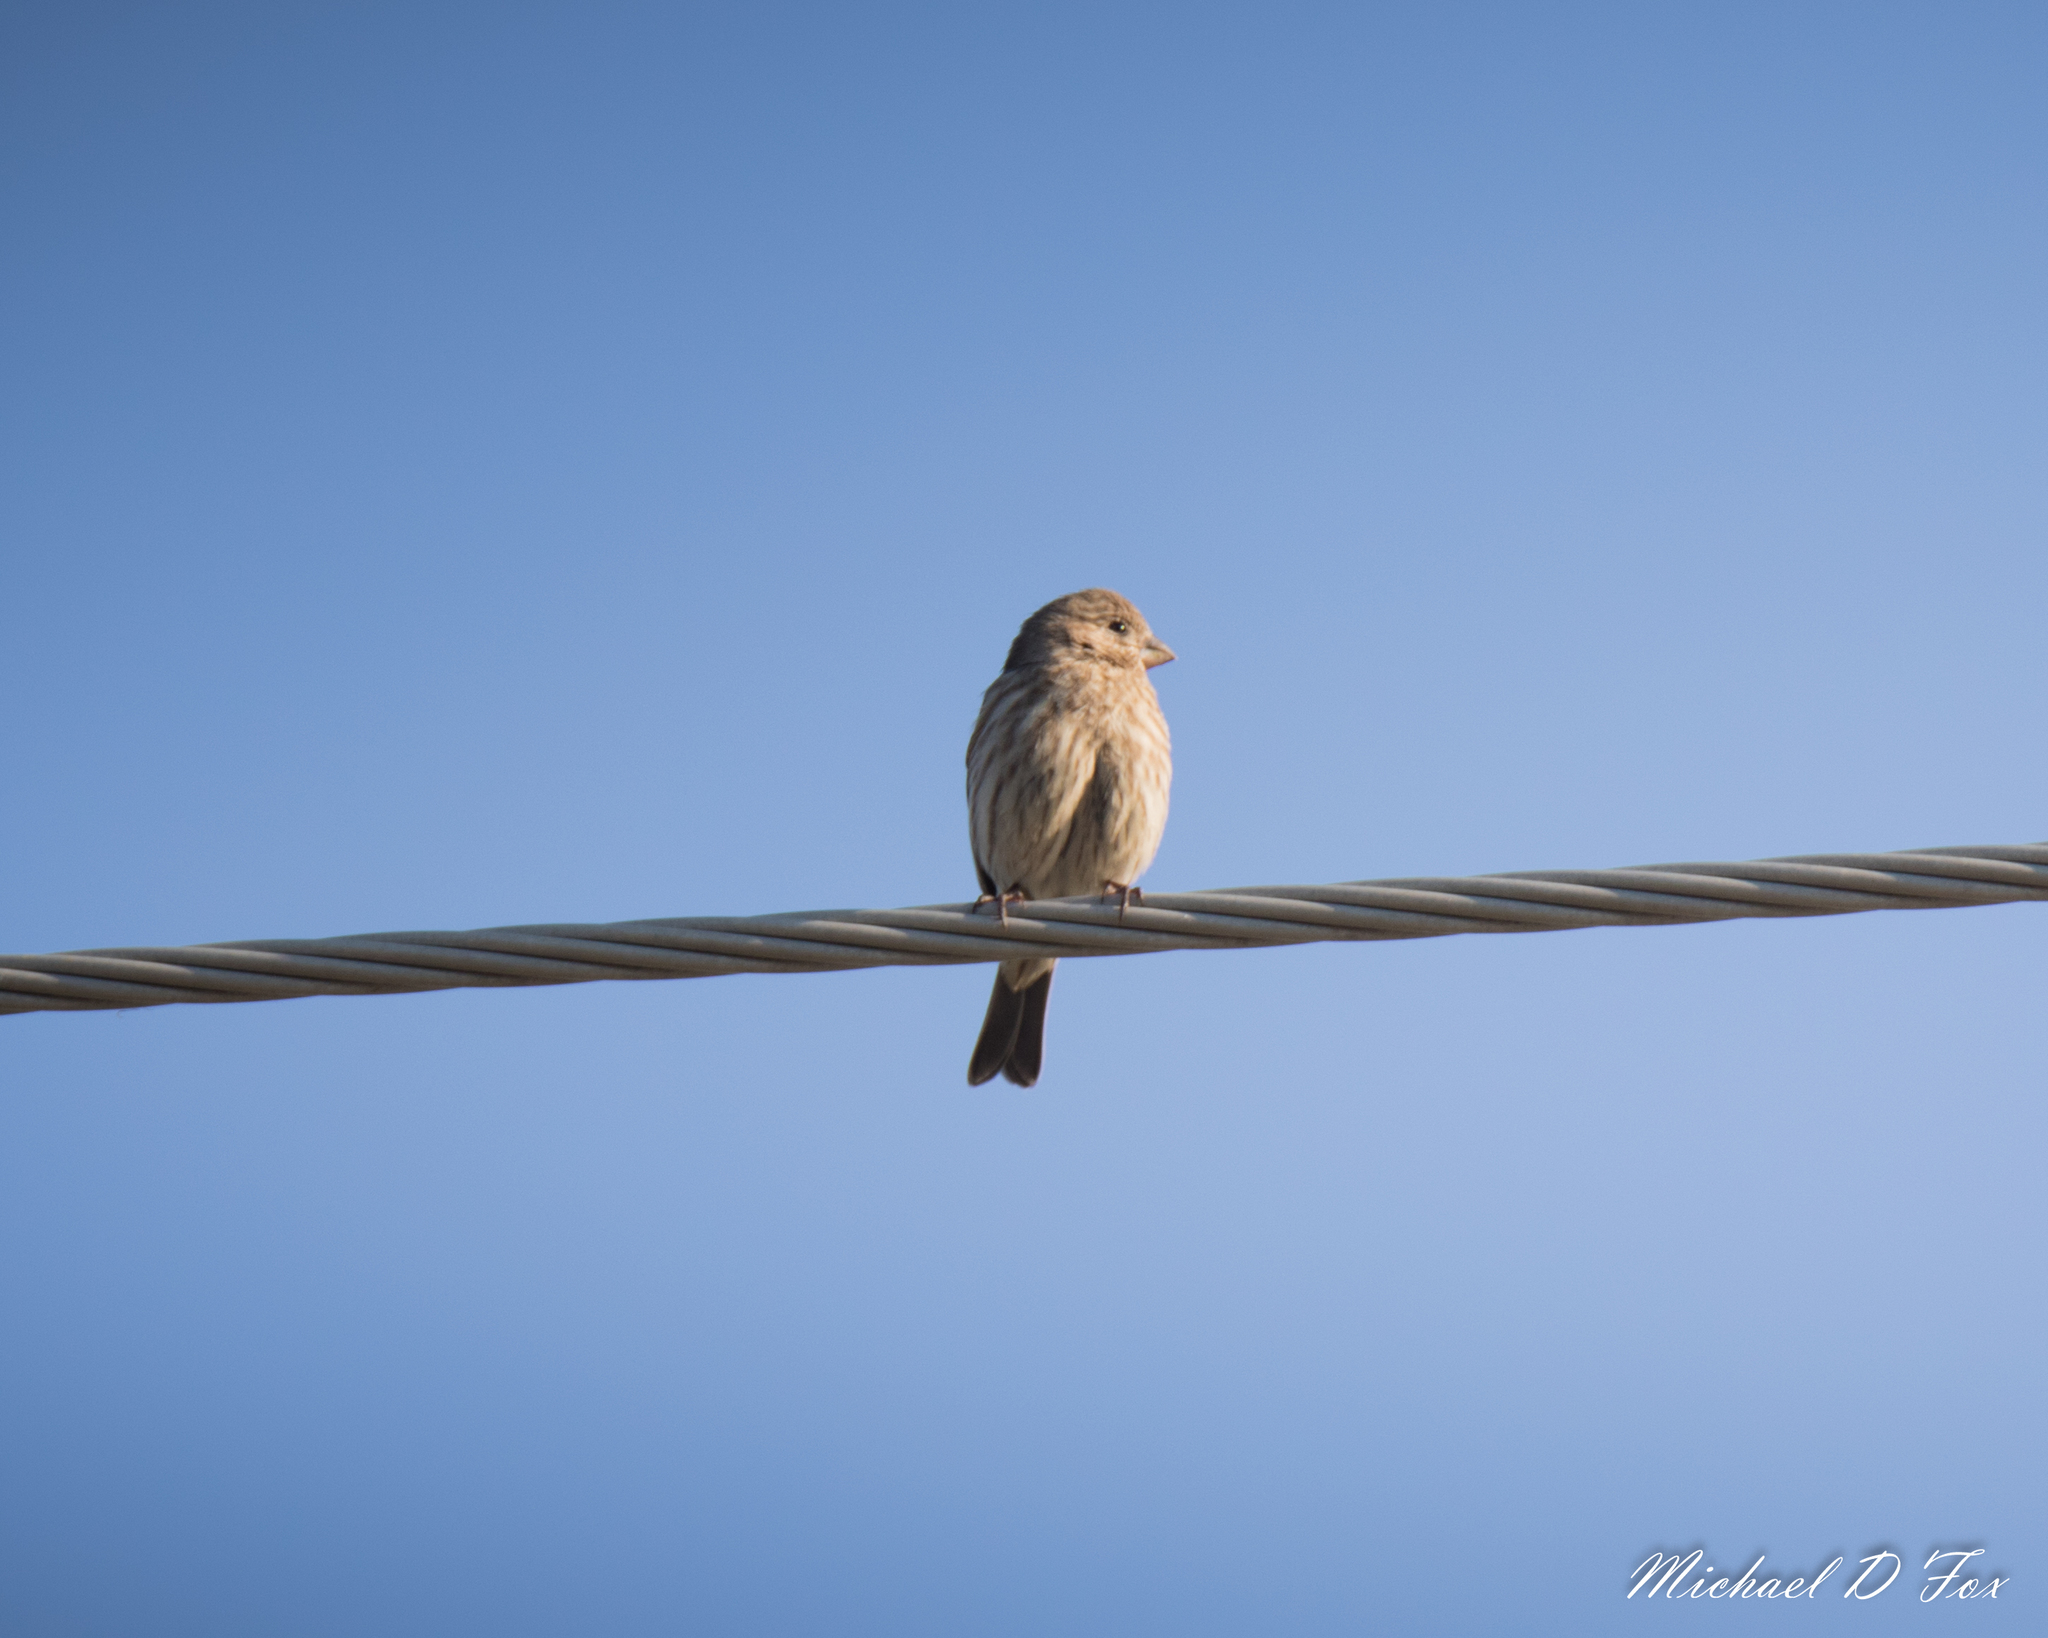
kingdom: Animalia
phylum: Chordata
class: Aves
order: Passeriformes
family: Fringillidae
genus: Haemorhous
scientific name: Haemorhous mexicanus
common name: House finch
